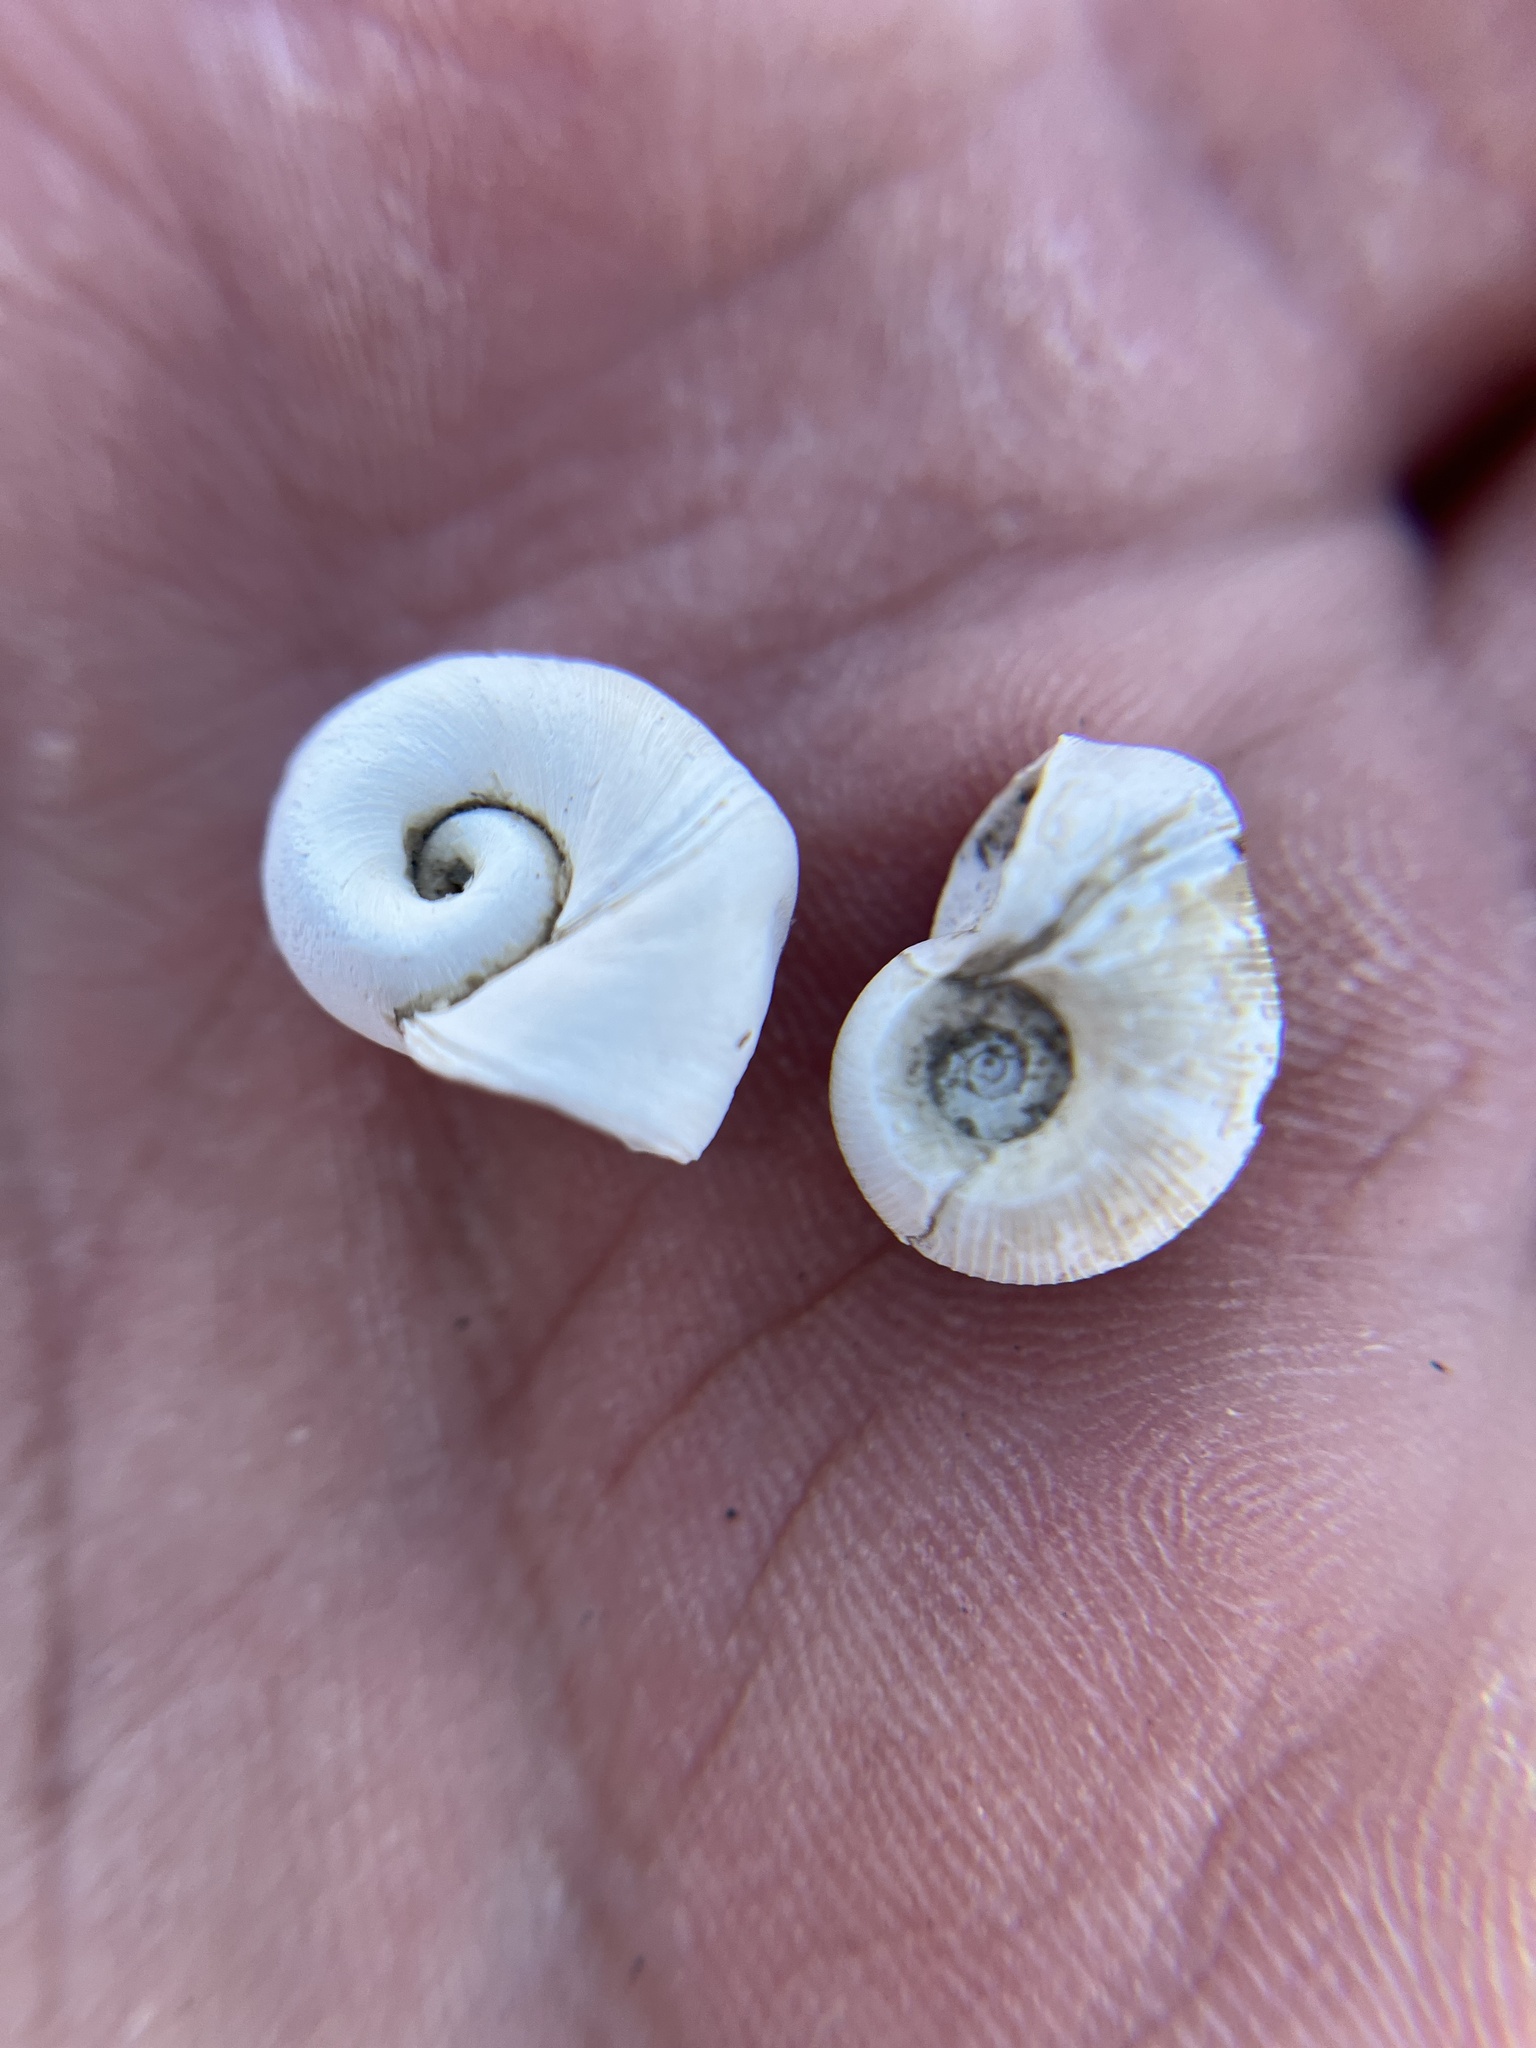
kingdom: Animalia
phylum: Mollusca
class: Gastropoda
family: Planorbidae
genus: Planorbella
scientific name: Planorbella trivolvis
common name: Marsh rams-horn
